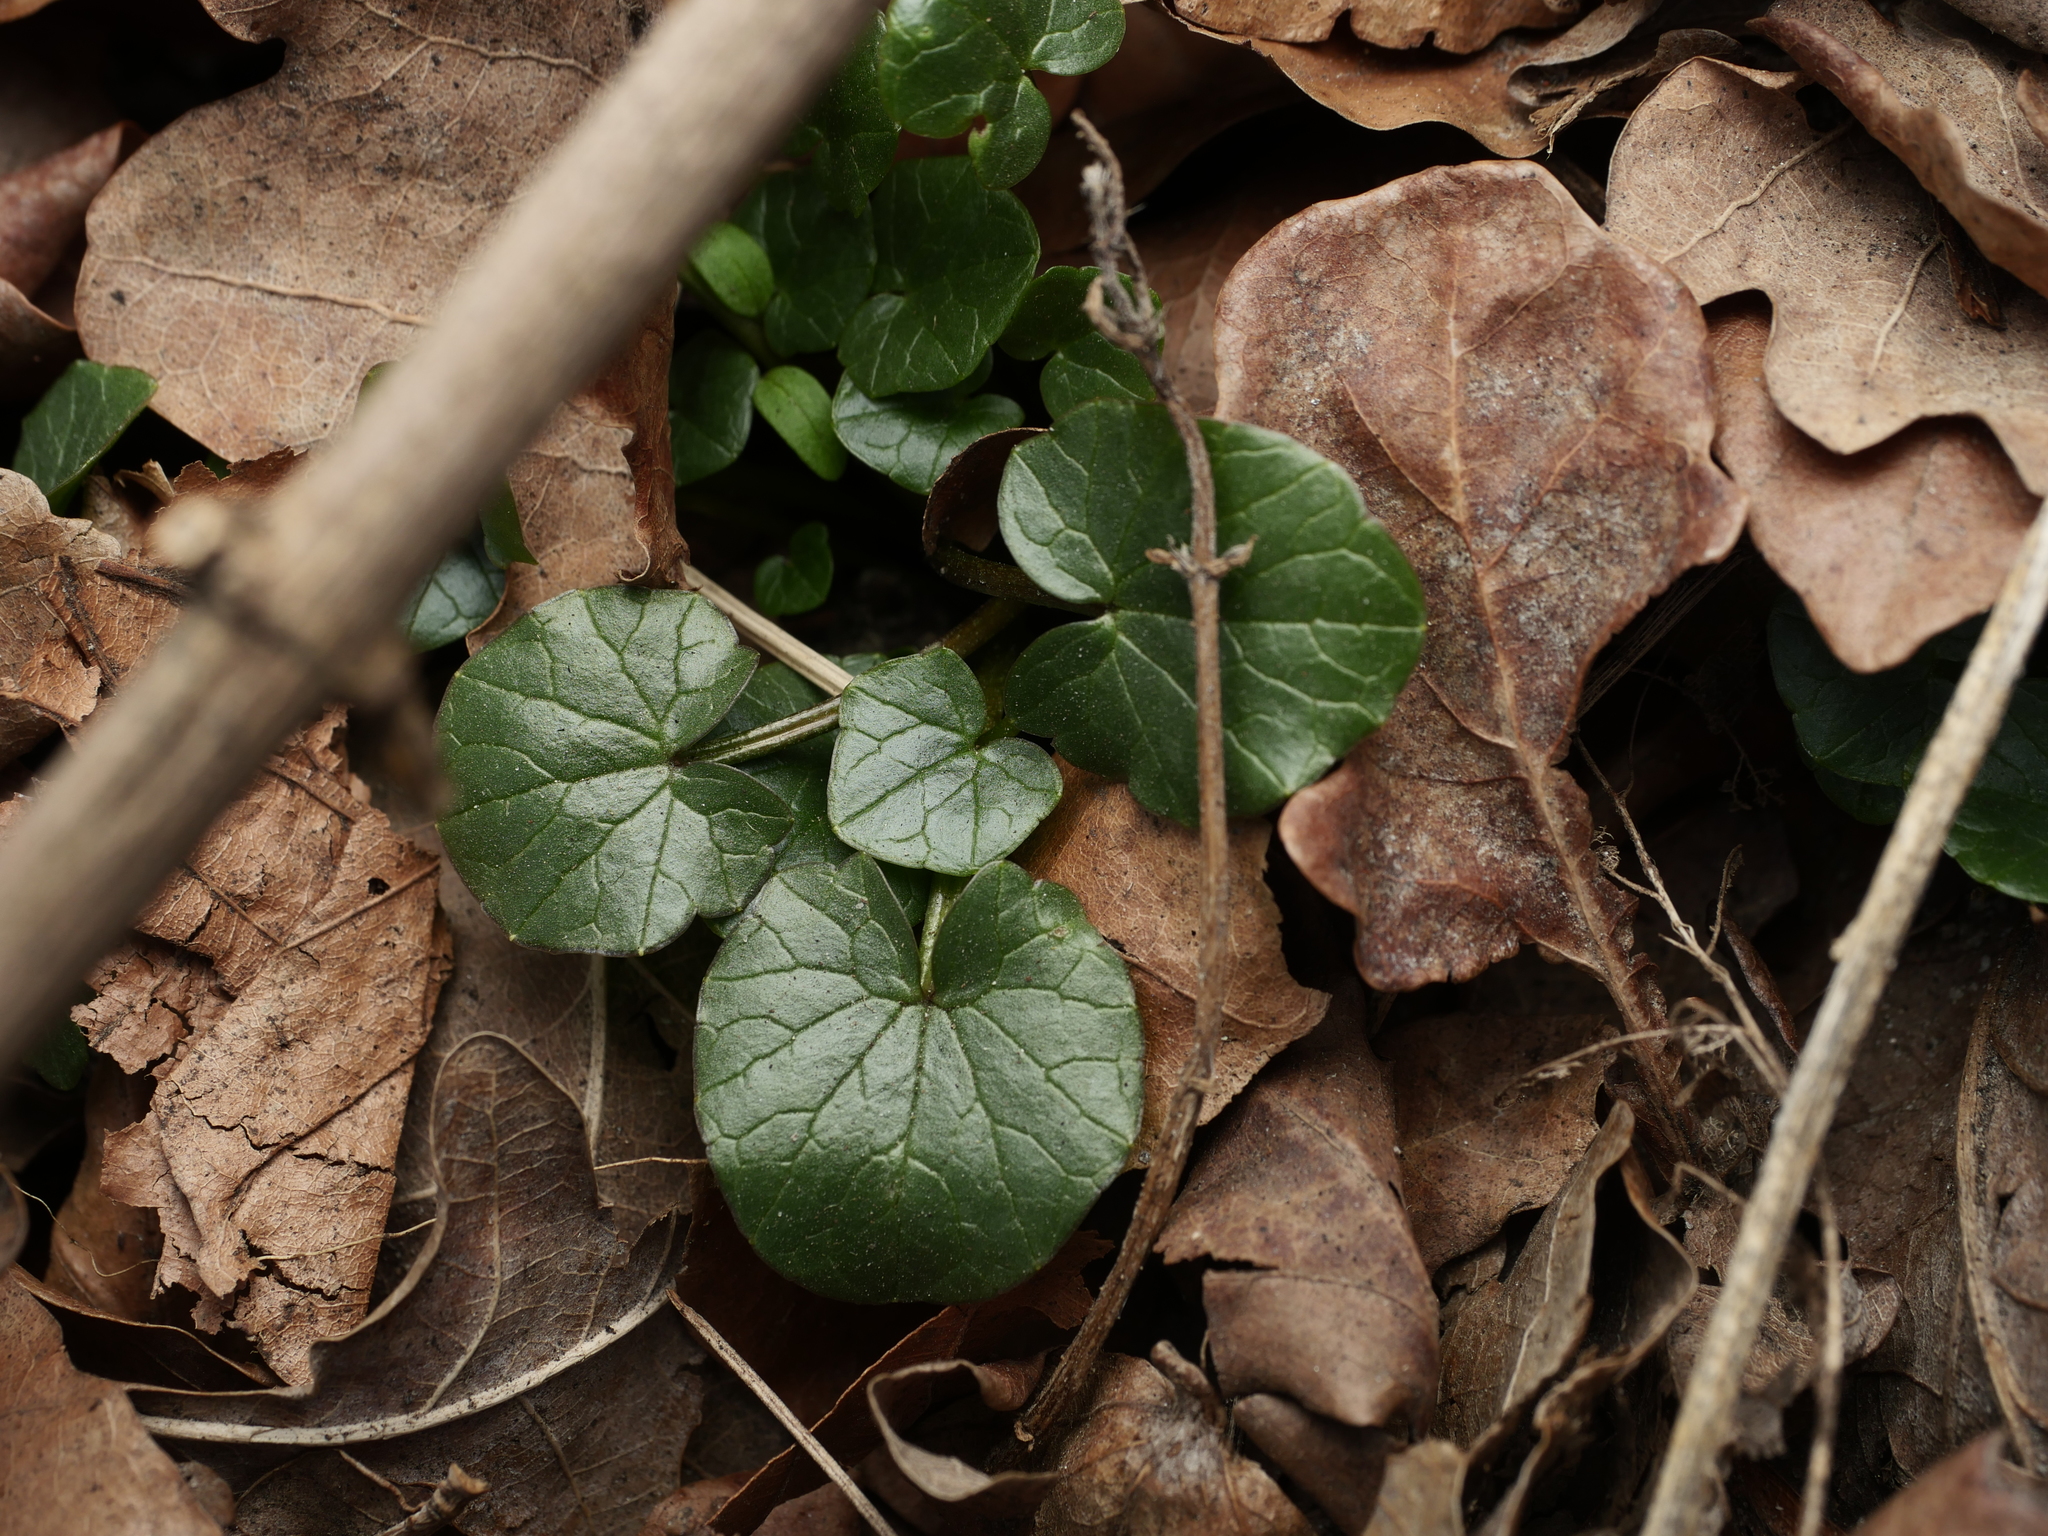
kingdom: Plantae
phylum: Tracheophyta
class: Magnoliopsida
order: Ranunculales
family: Ranunculaceae
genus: Ficaria
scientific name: Ficaria verna
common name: Lesser celandine
